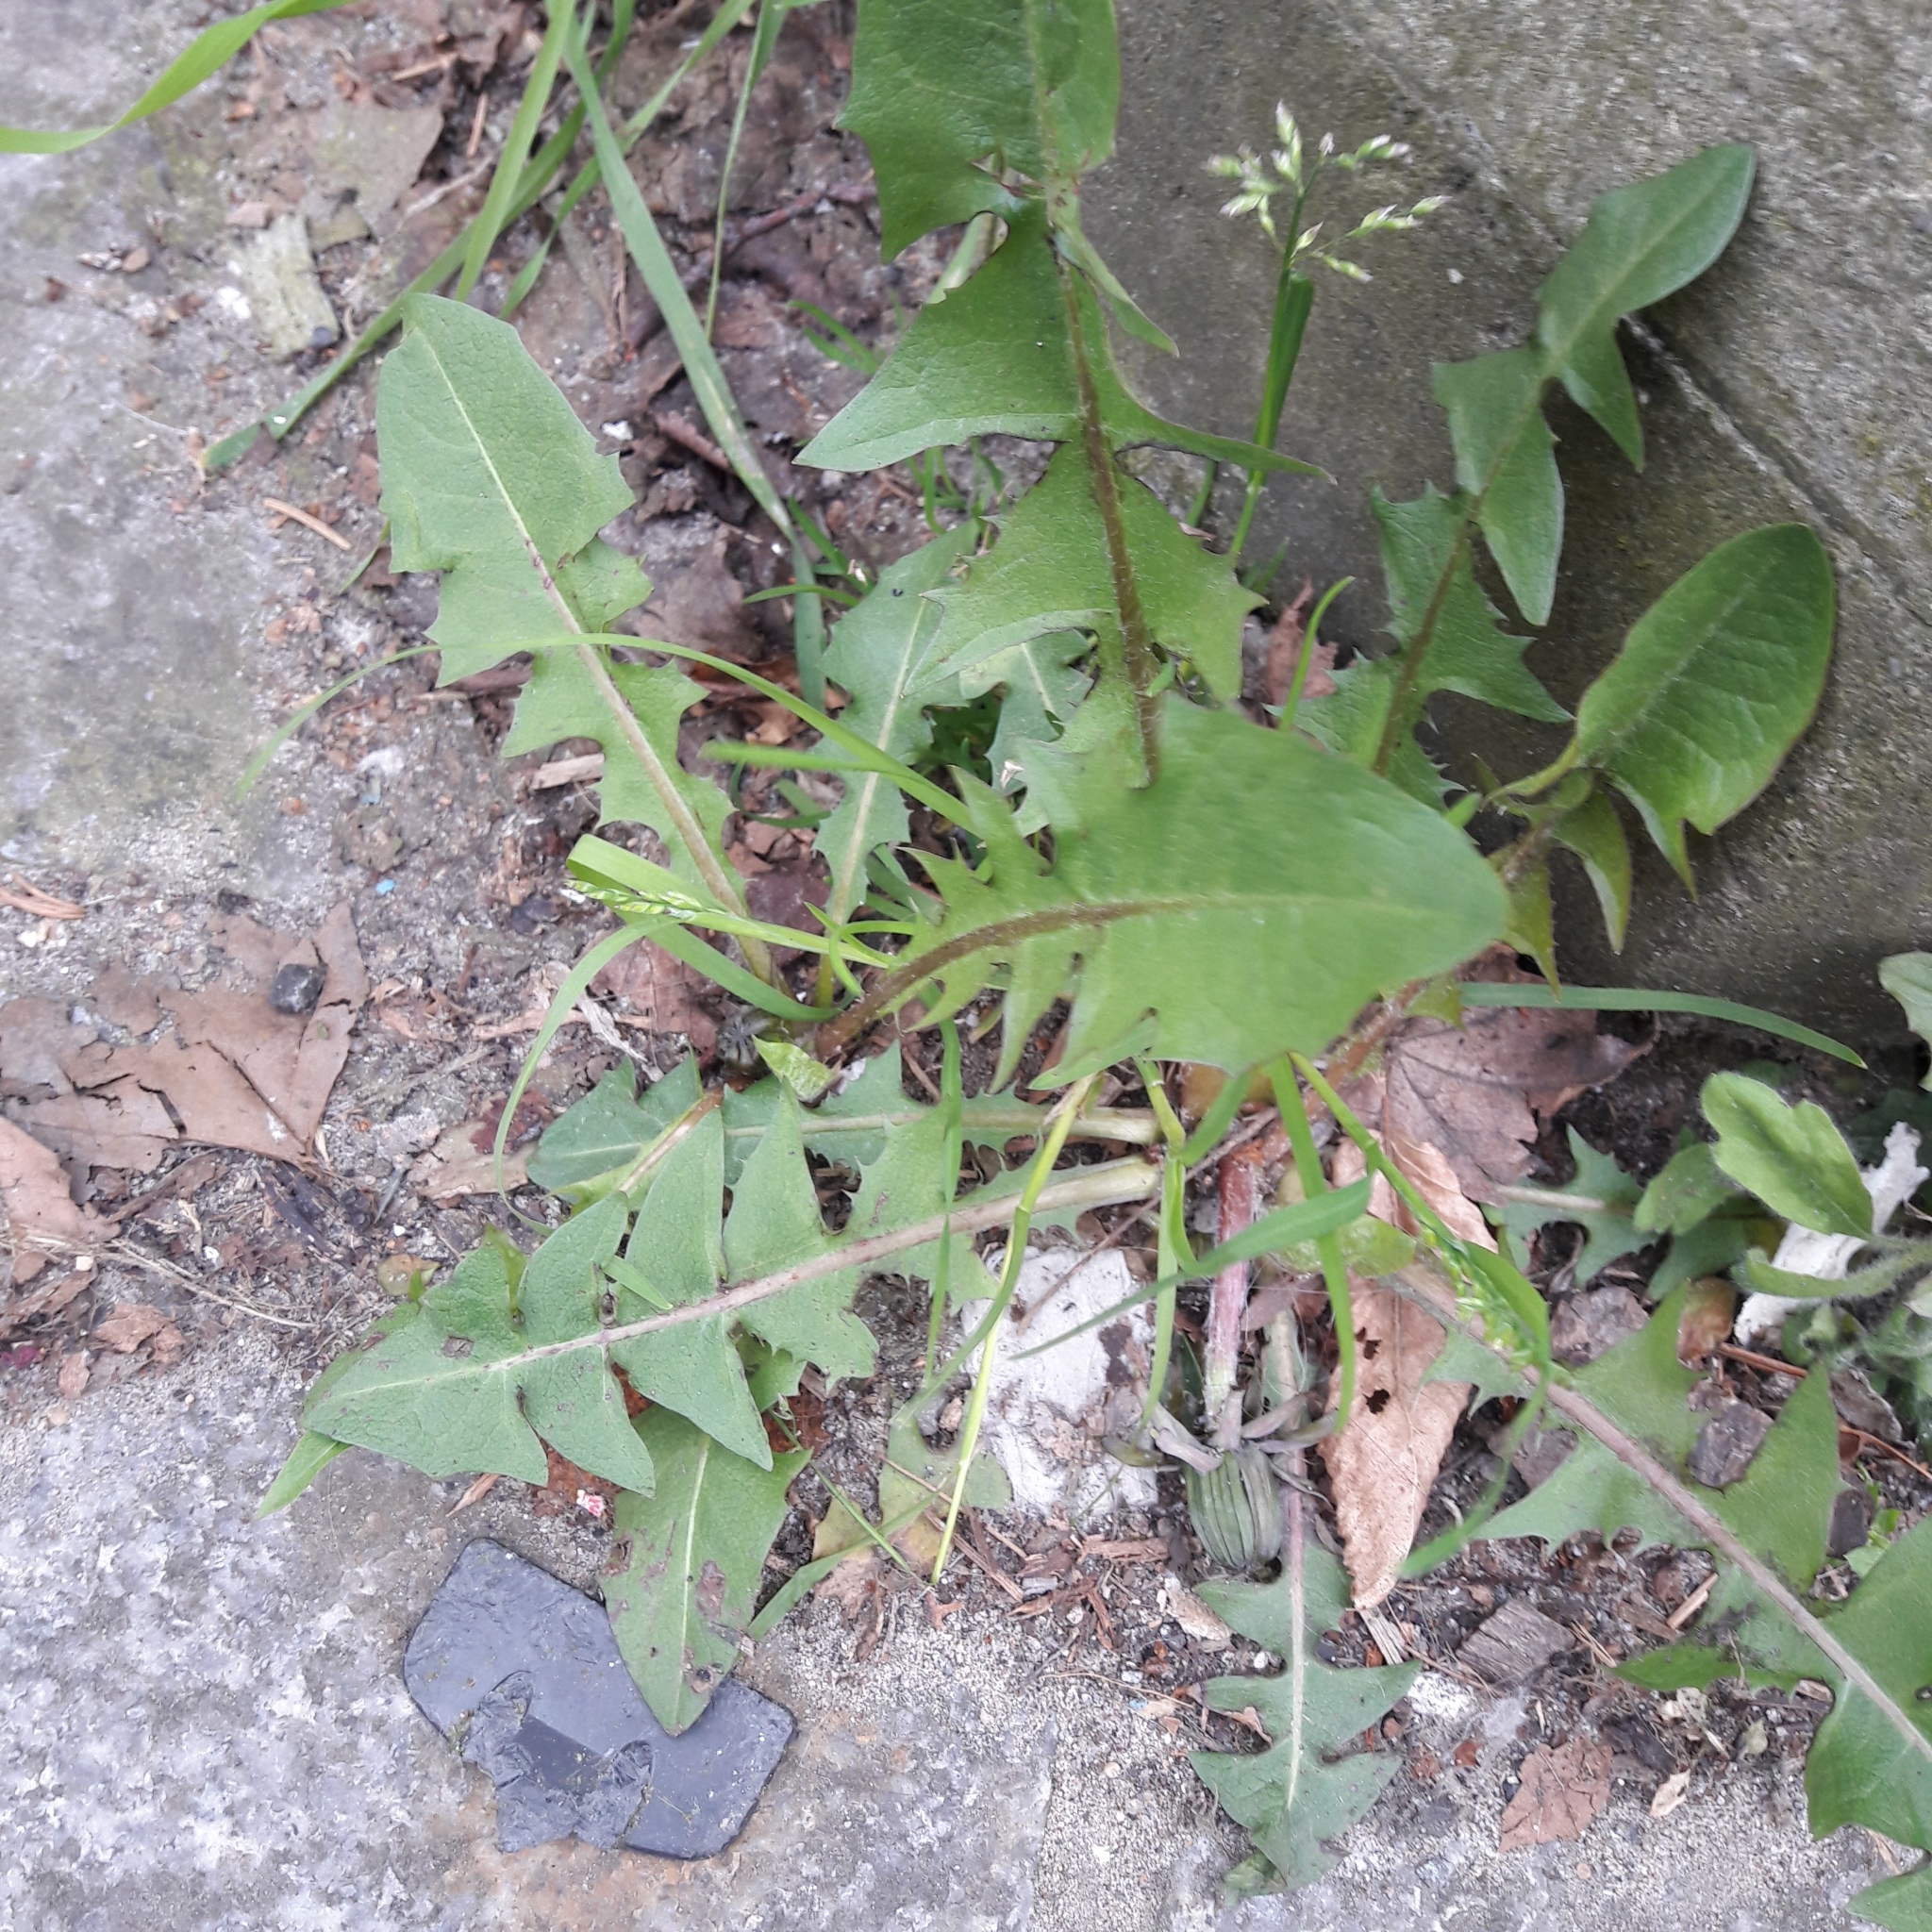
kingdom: Plantae
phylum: Tracheophyta
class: Magnoliopsida
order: Asterales
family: Asteraceae
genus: Taraxacum
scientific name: Taraxacum officinale
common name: Common dandelion
